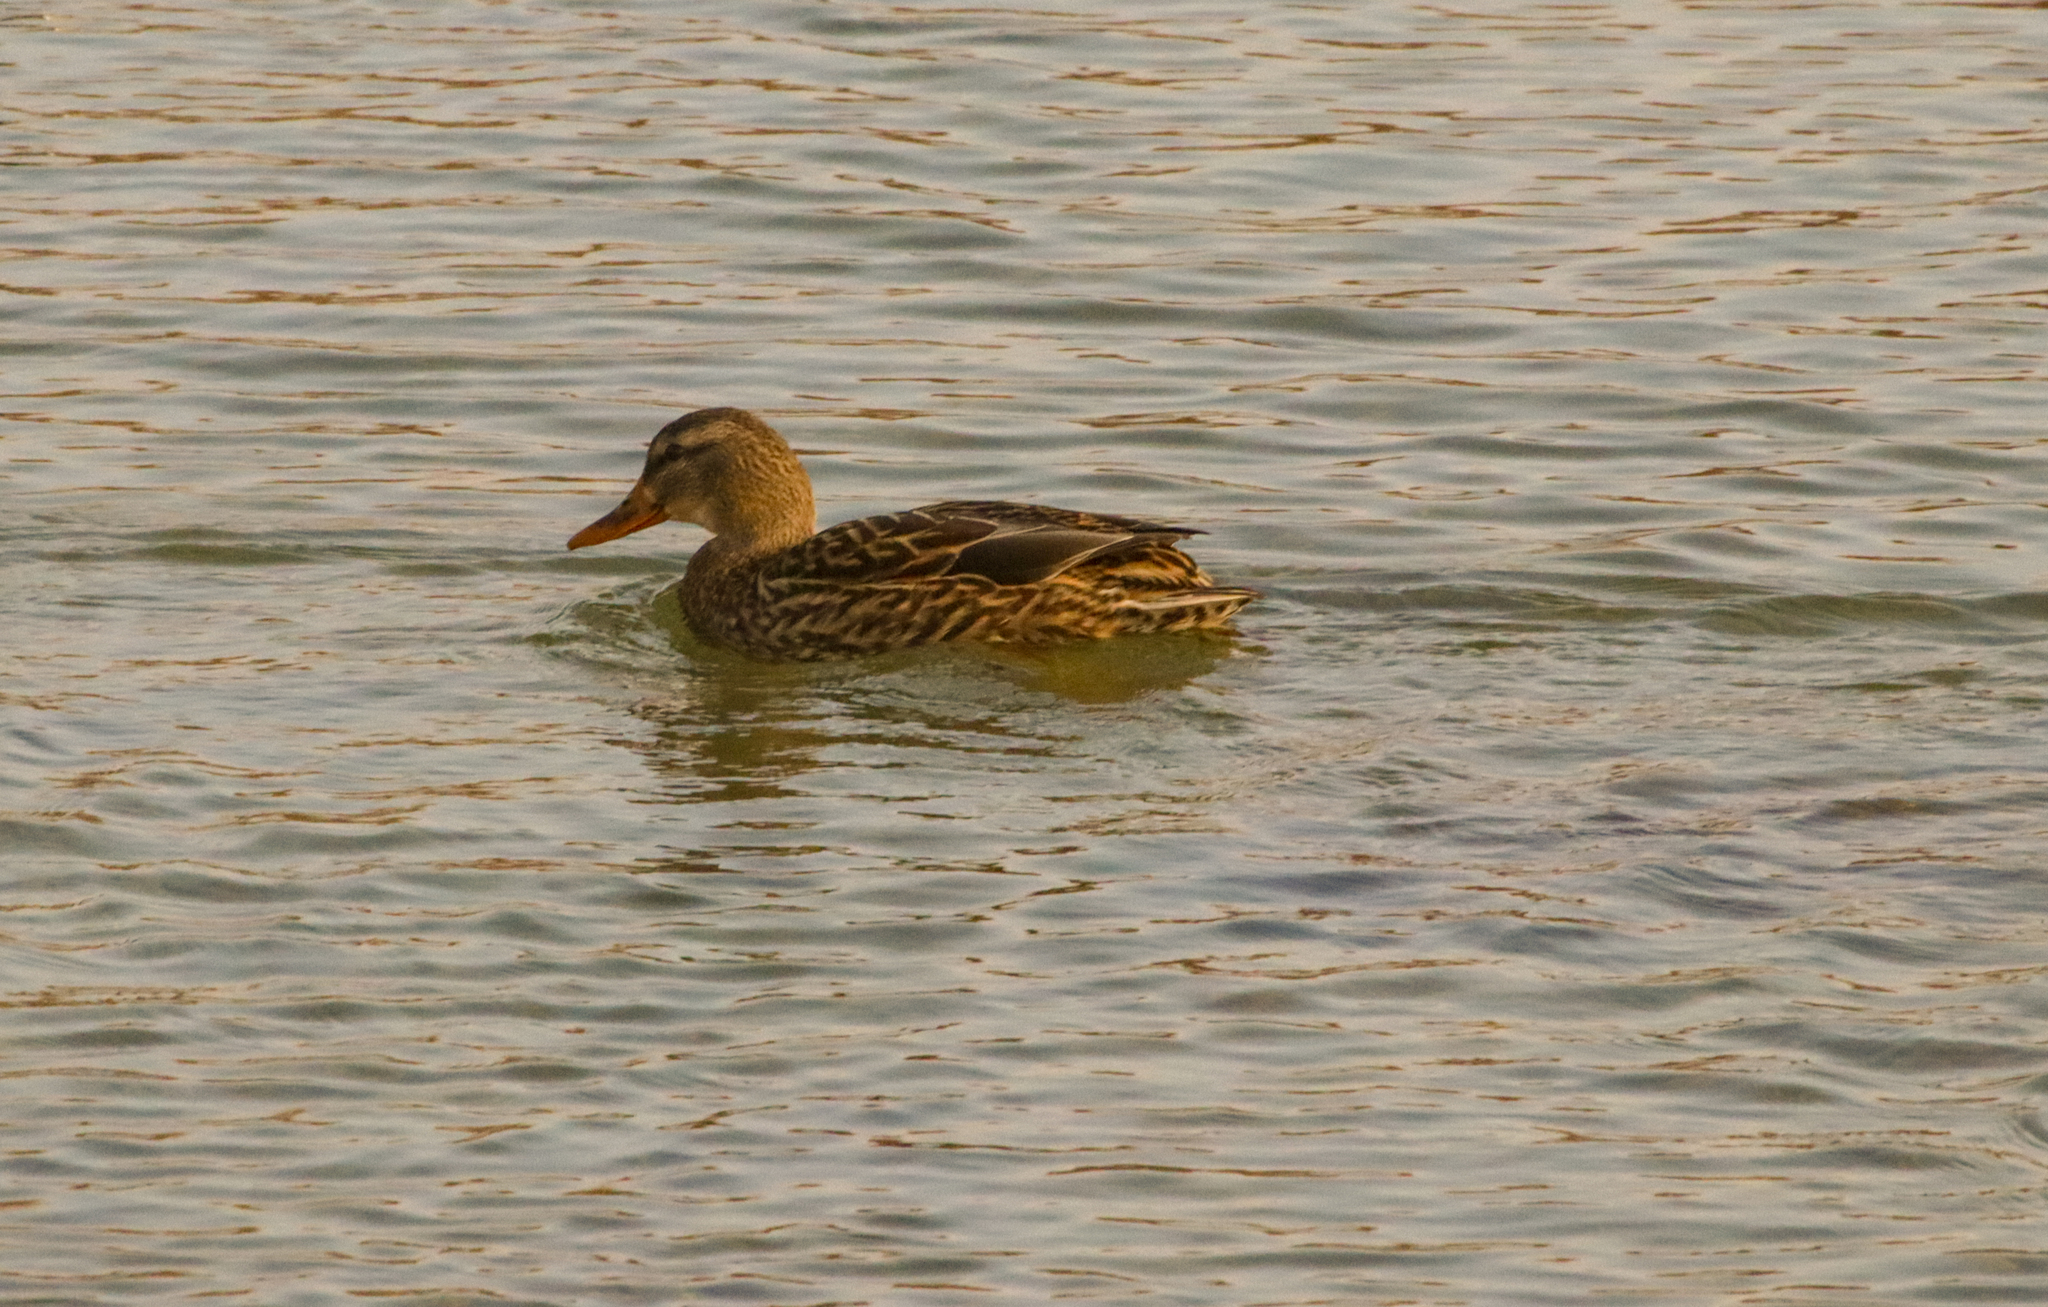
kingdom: Animalia
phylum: Chordata
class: Aves
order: Anseriformes
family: Anatidae
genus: Anas
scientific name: Anas platyrhynchos
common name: Mallard
